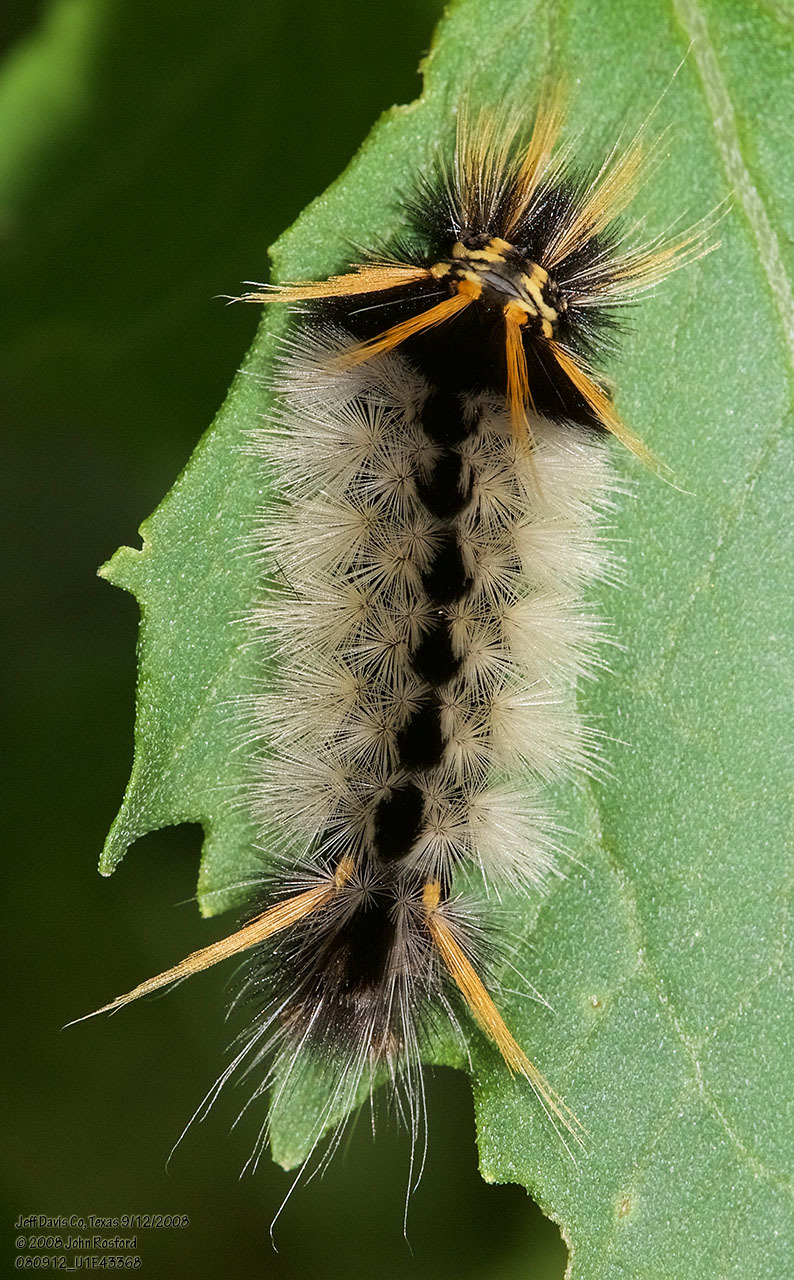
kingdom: Animalia
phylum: Arthropoda
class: Insecta
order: Lepidoptera
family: Erebidae
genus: Halysidota
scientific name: Halysidota davisii
